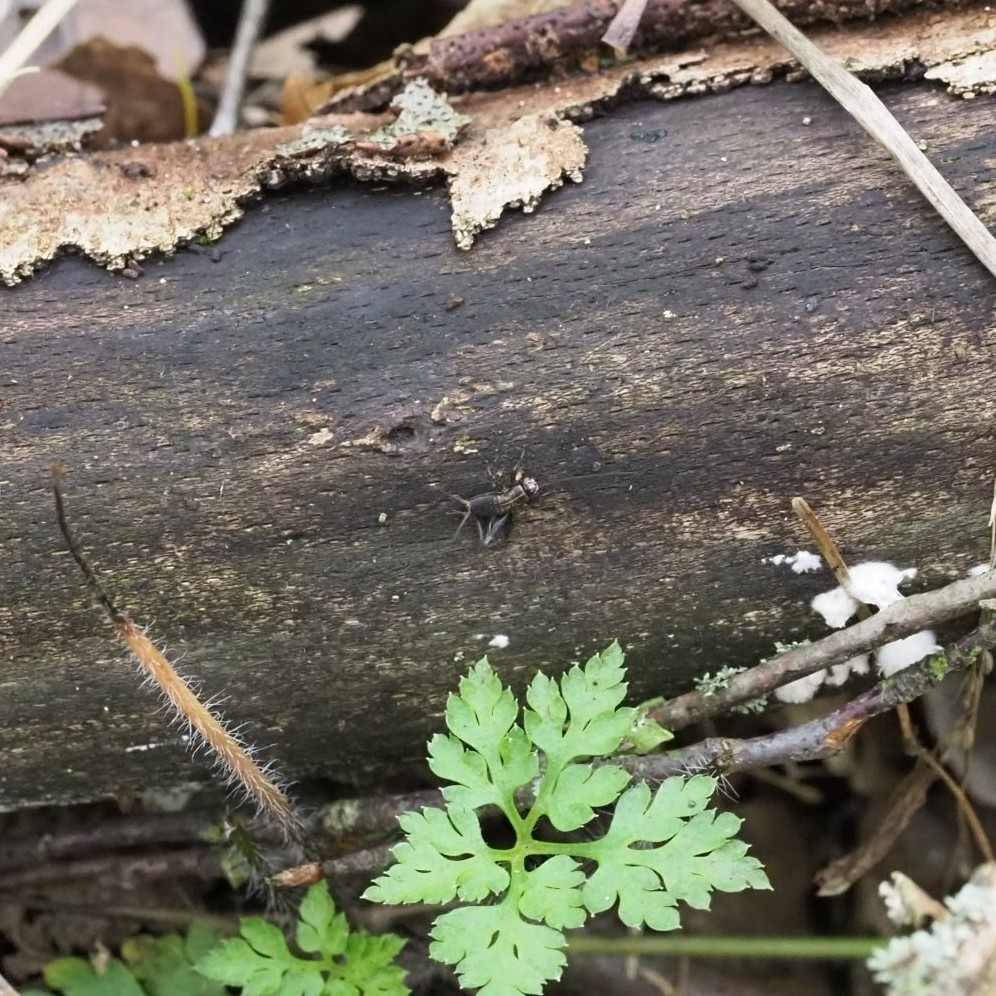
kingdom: Animalia
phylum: Arthropoda
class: Insecta
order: Orthoptera
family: Trigonidiidae
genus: Nemobius
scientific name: Nemobius sylvestris
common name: Wood-cricket
